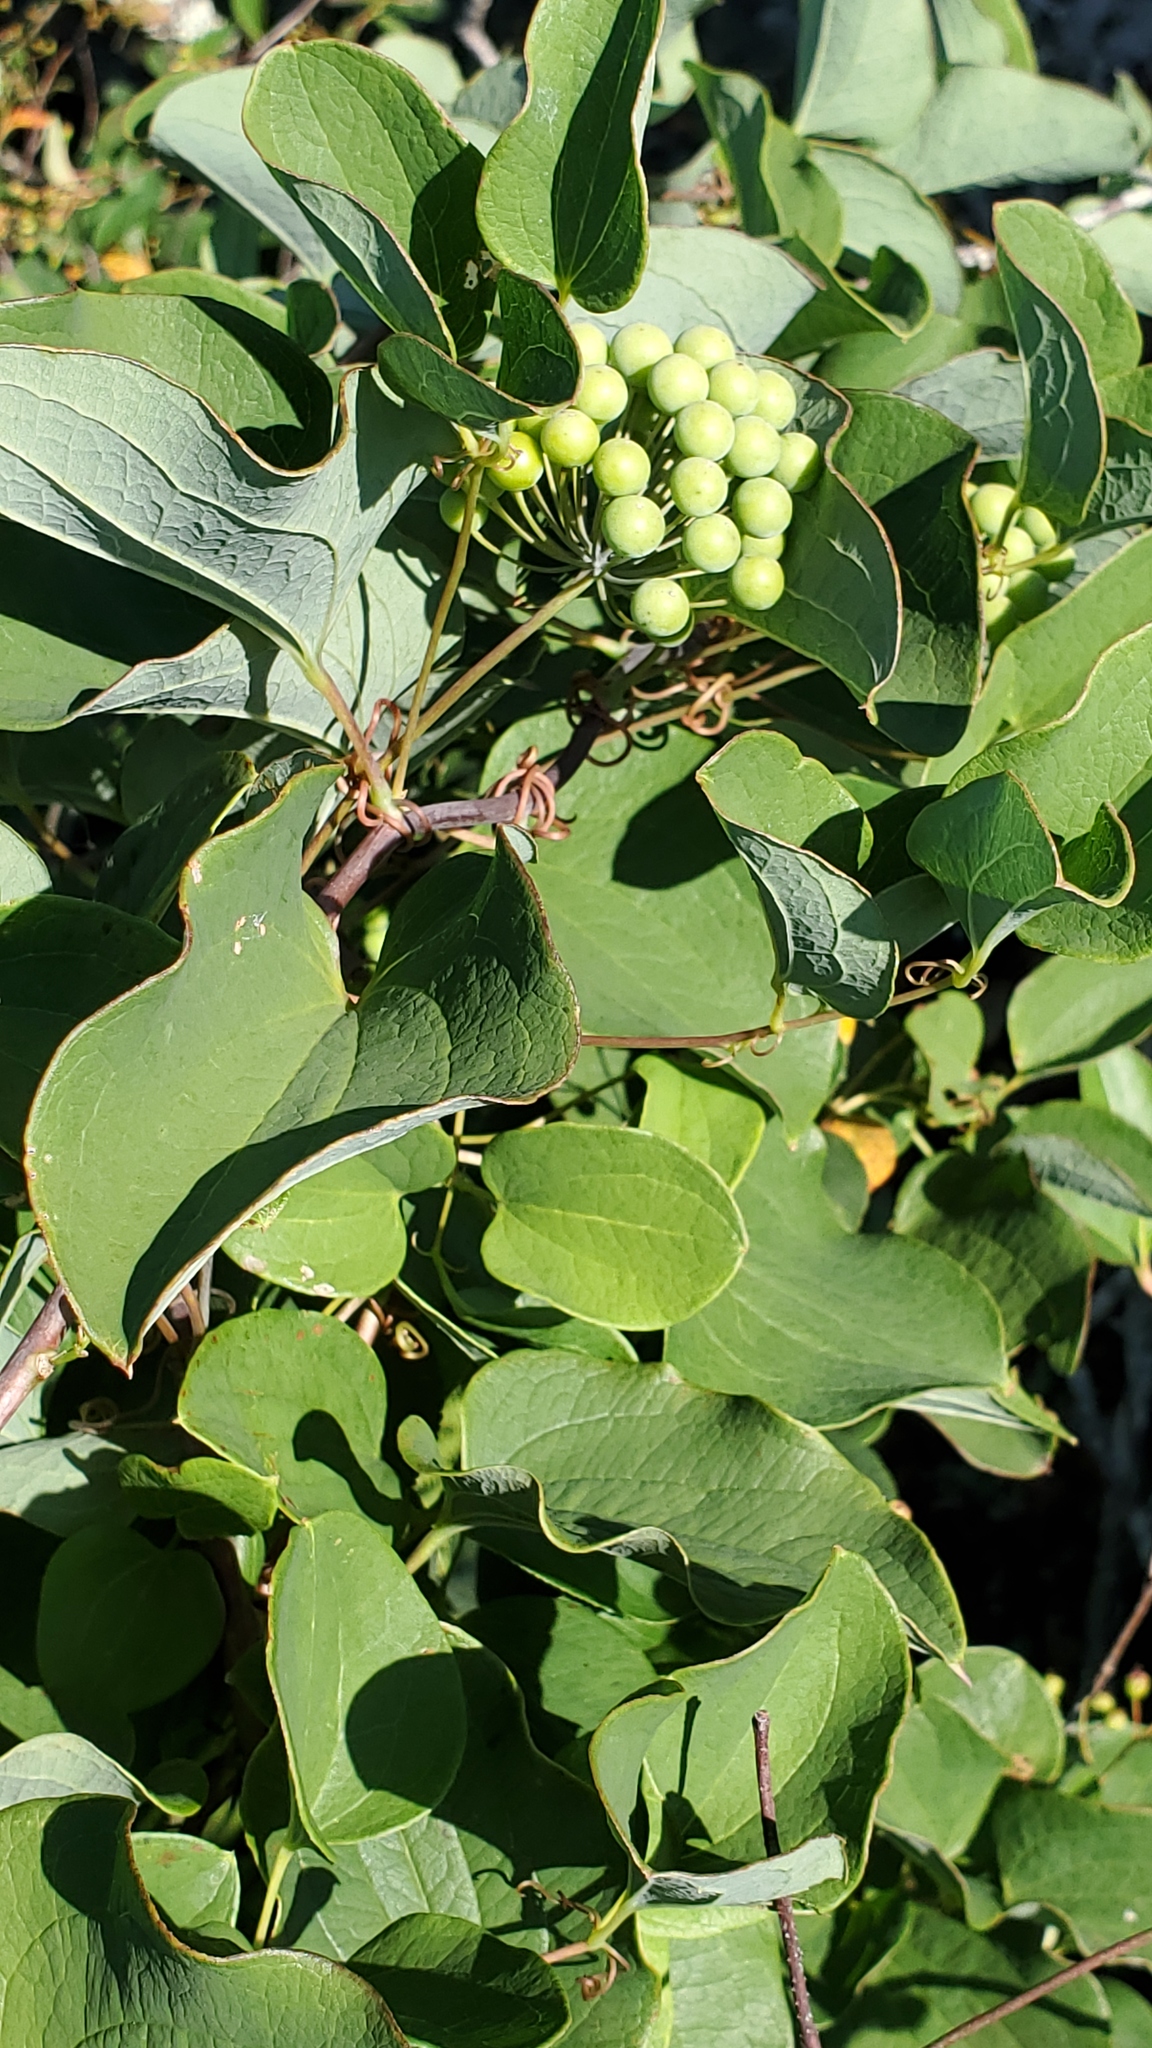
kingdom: Plantae
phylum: Tracheophyta
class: Liliopsida
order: Liliales
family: Smilacaceae
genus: Smilax
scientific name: Smilax herbacea
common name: Jacob's-ladder
